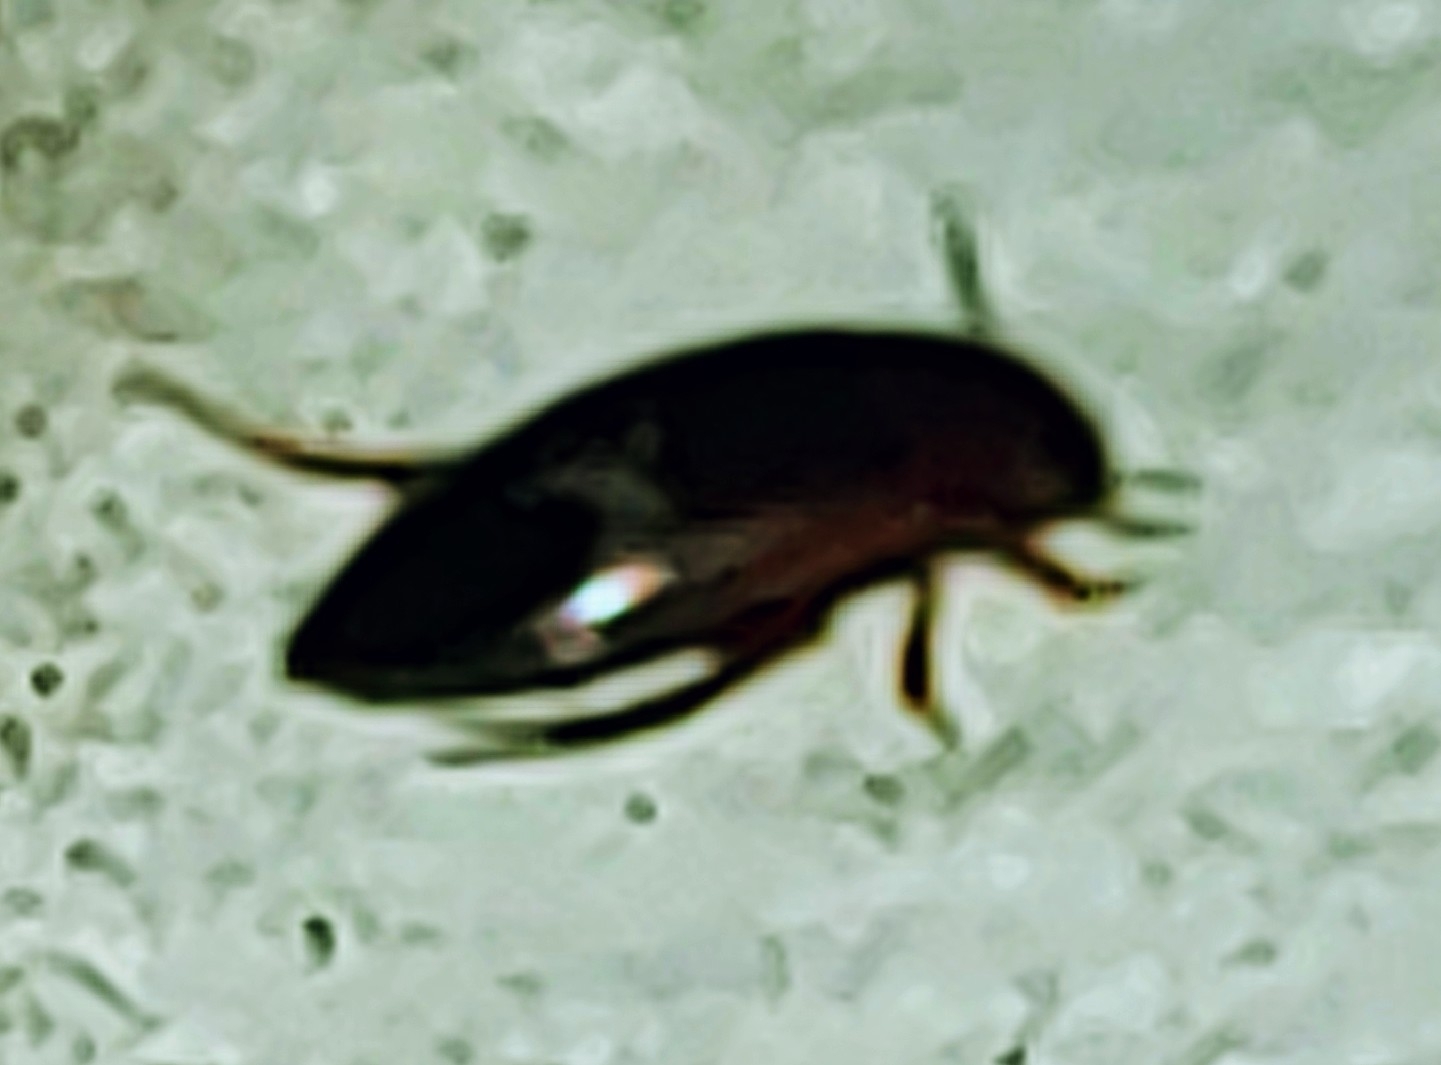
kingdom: Animalia
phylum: Arthropoda
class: Insecta
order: Coleoptera
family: Dytiscidae
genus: Copelatus
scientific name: Copelatus
